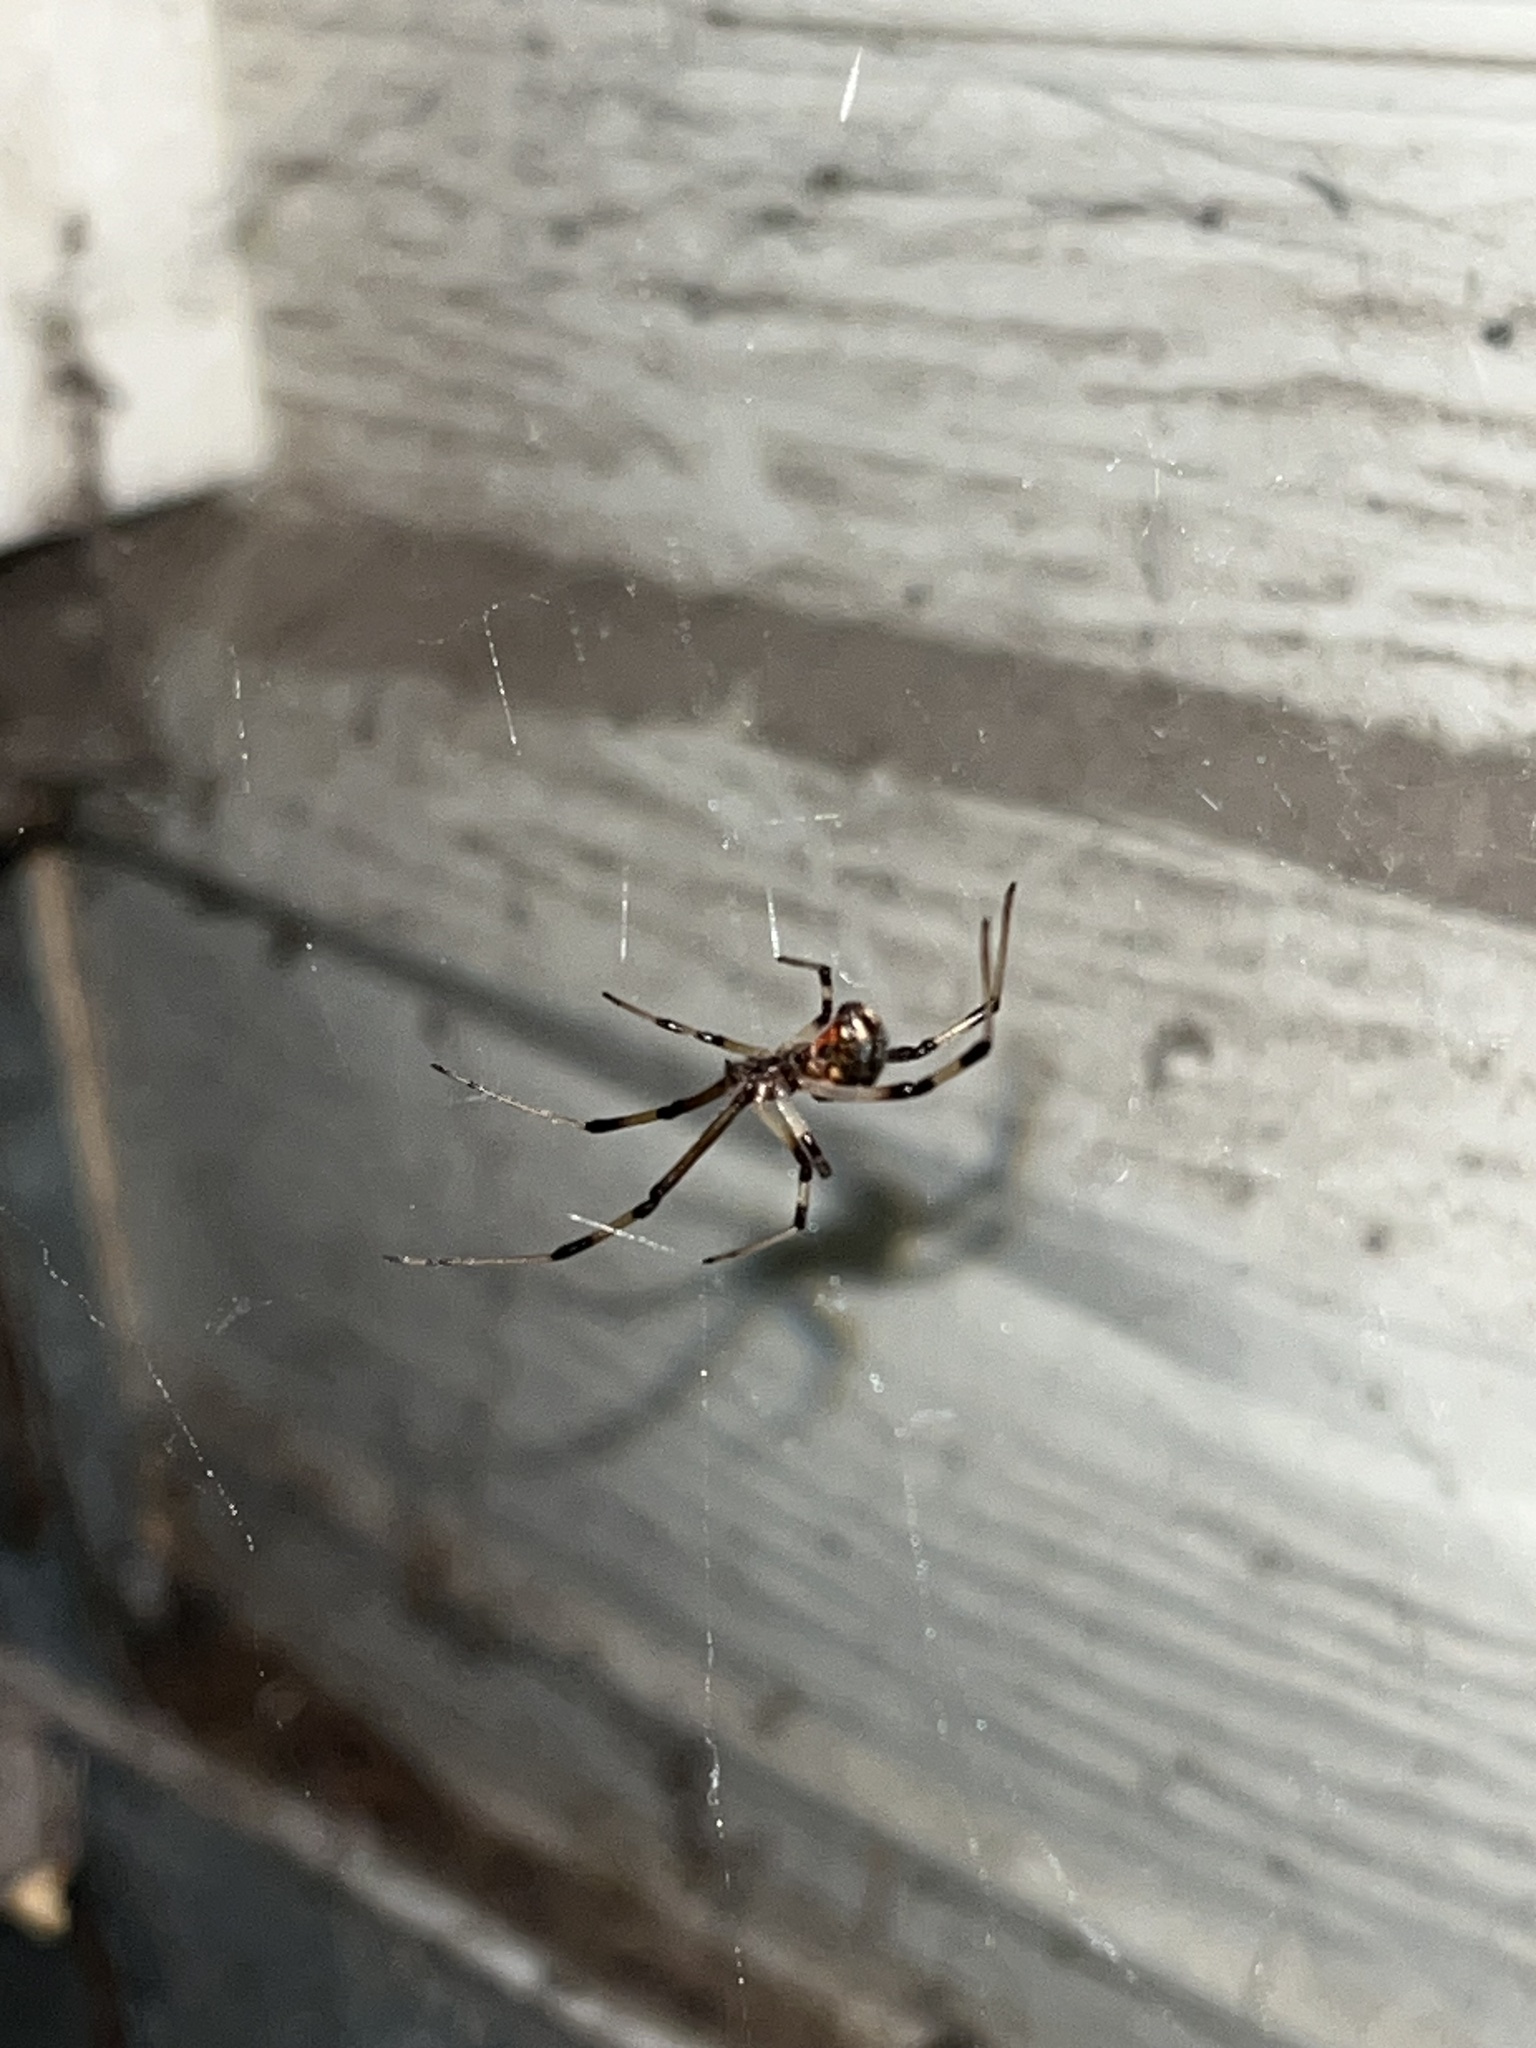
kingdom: Animalia
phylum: Arthropoda
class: Arachnida
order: Araneae
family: Theridiidae
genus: Latrodectus
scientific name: Latrodectus geometricus
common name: Brown widow spider
